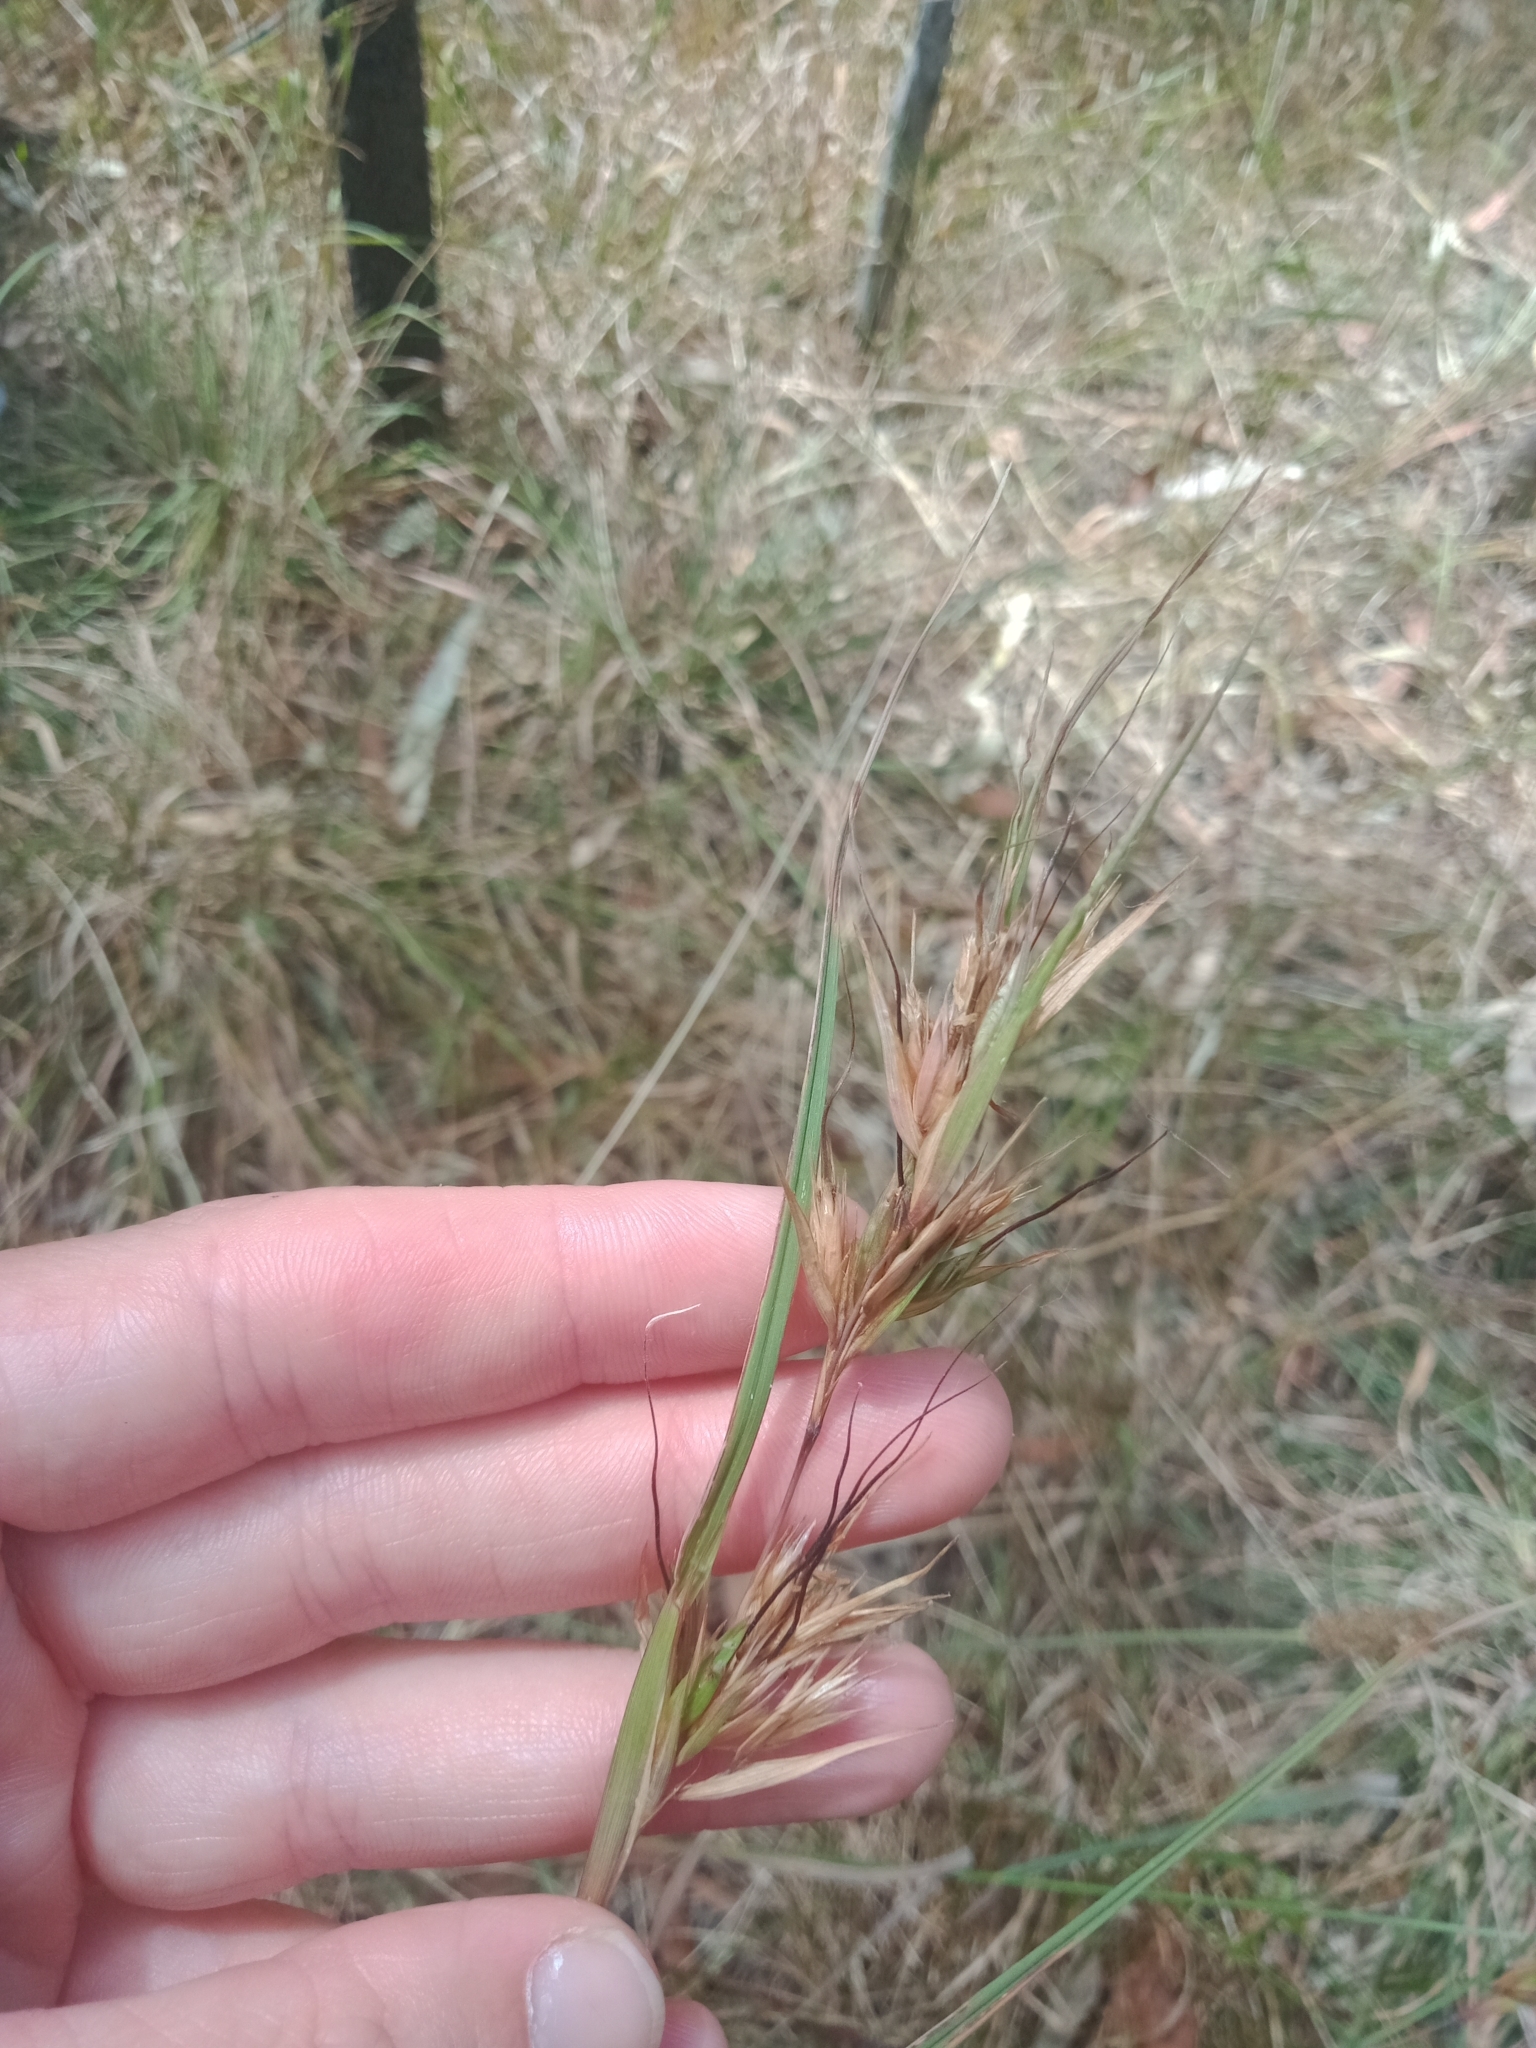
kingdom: Plantae
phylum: Tracheophyta
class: Liliopsida
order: Poales
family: Poaceae
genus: Themeda
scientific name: Themeda triandra
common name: Kangaroo grass
